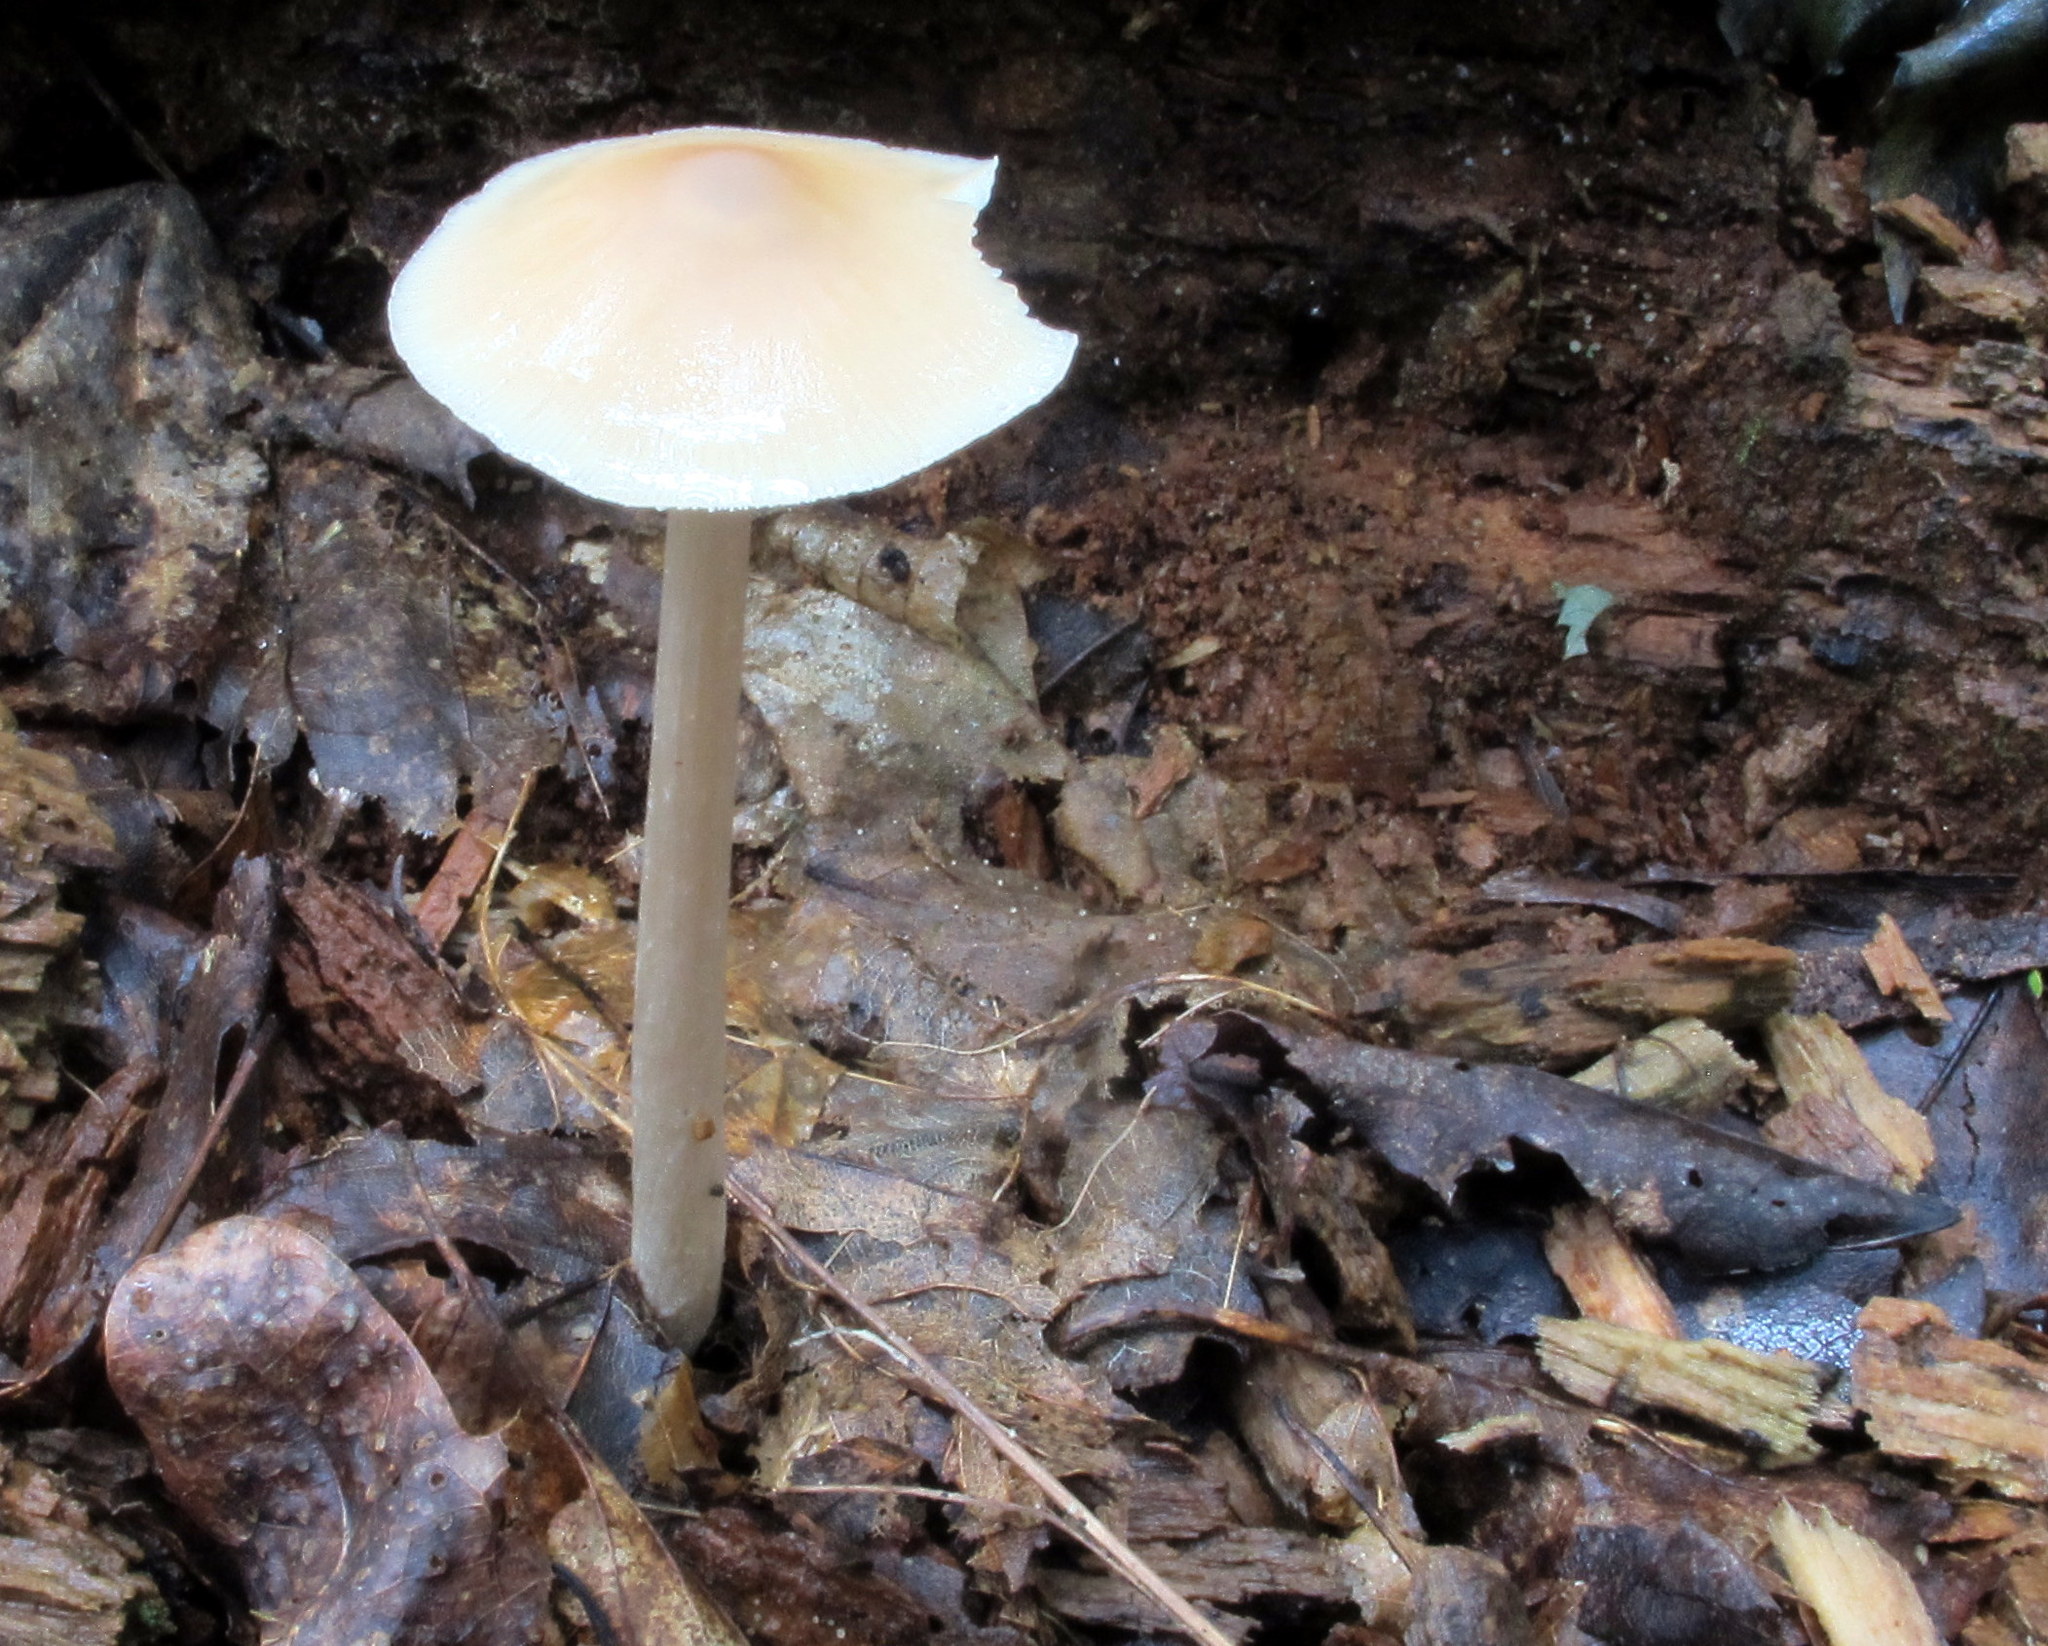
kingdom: Fungi
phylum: Basidiomycota
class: Agaricomycetes
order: Agaricales
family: Entolomataceae
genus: Entoloma
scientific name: Entoloma strictius
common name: Straight-stalked entoloma
